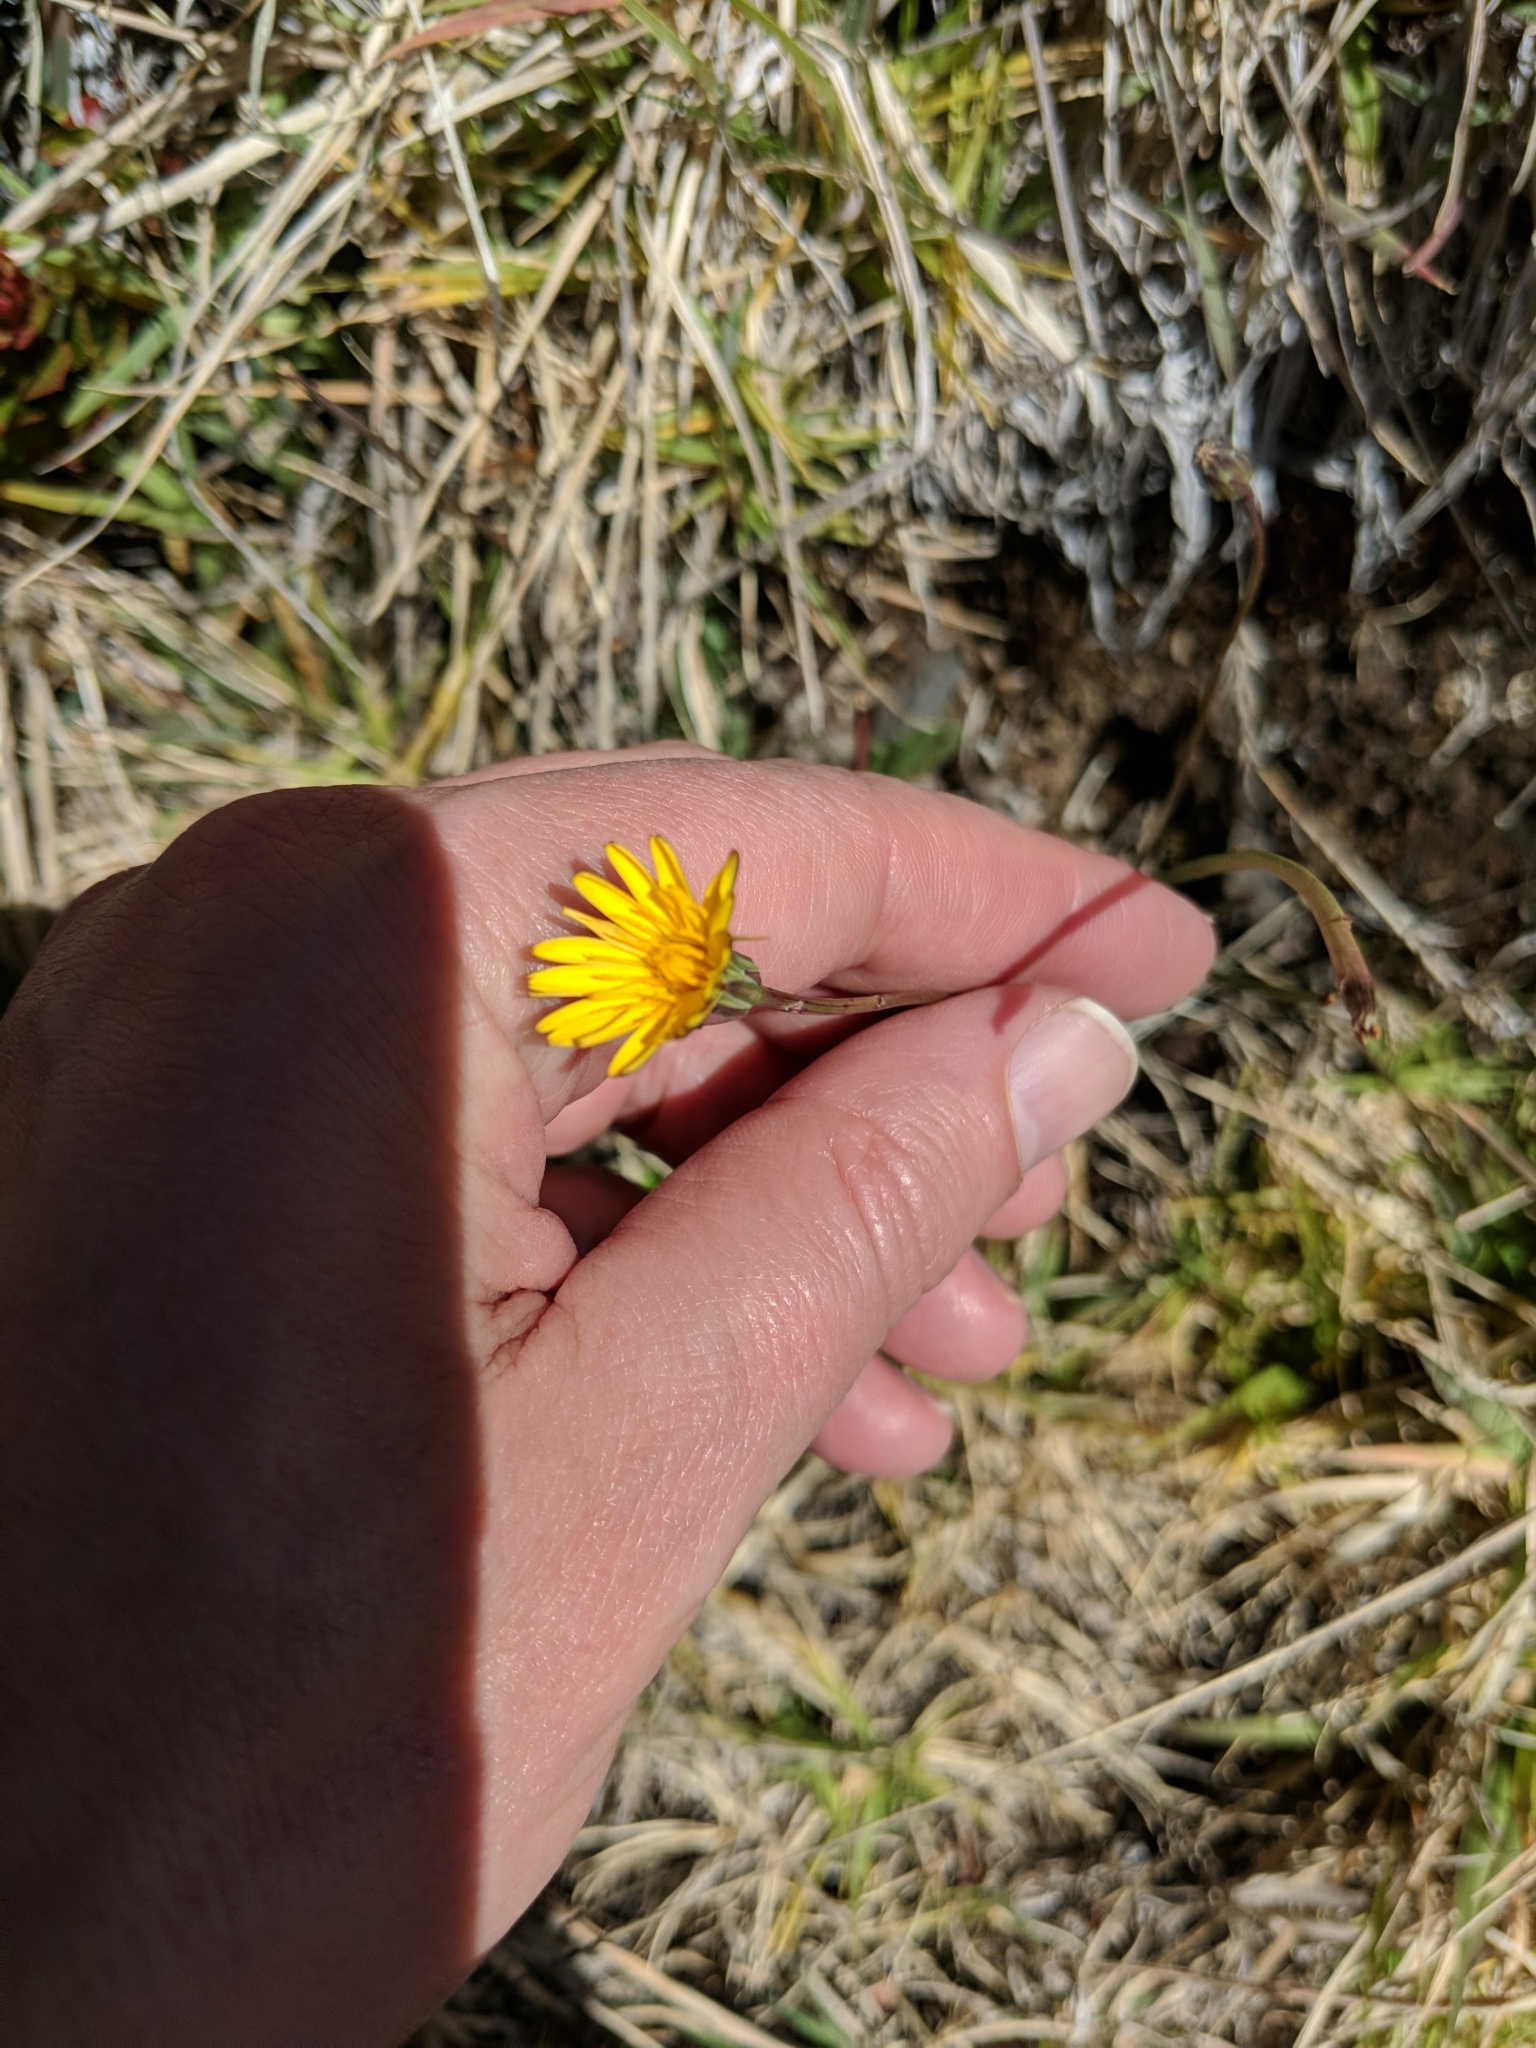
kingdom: Plantae
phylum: Tracheophyta
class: Magnoliopsida
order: Asterales
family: Asteraceae
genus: Hypochaeris
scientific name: Hypochaeris radicata
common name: Flatweed
